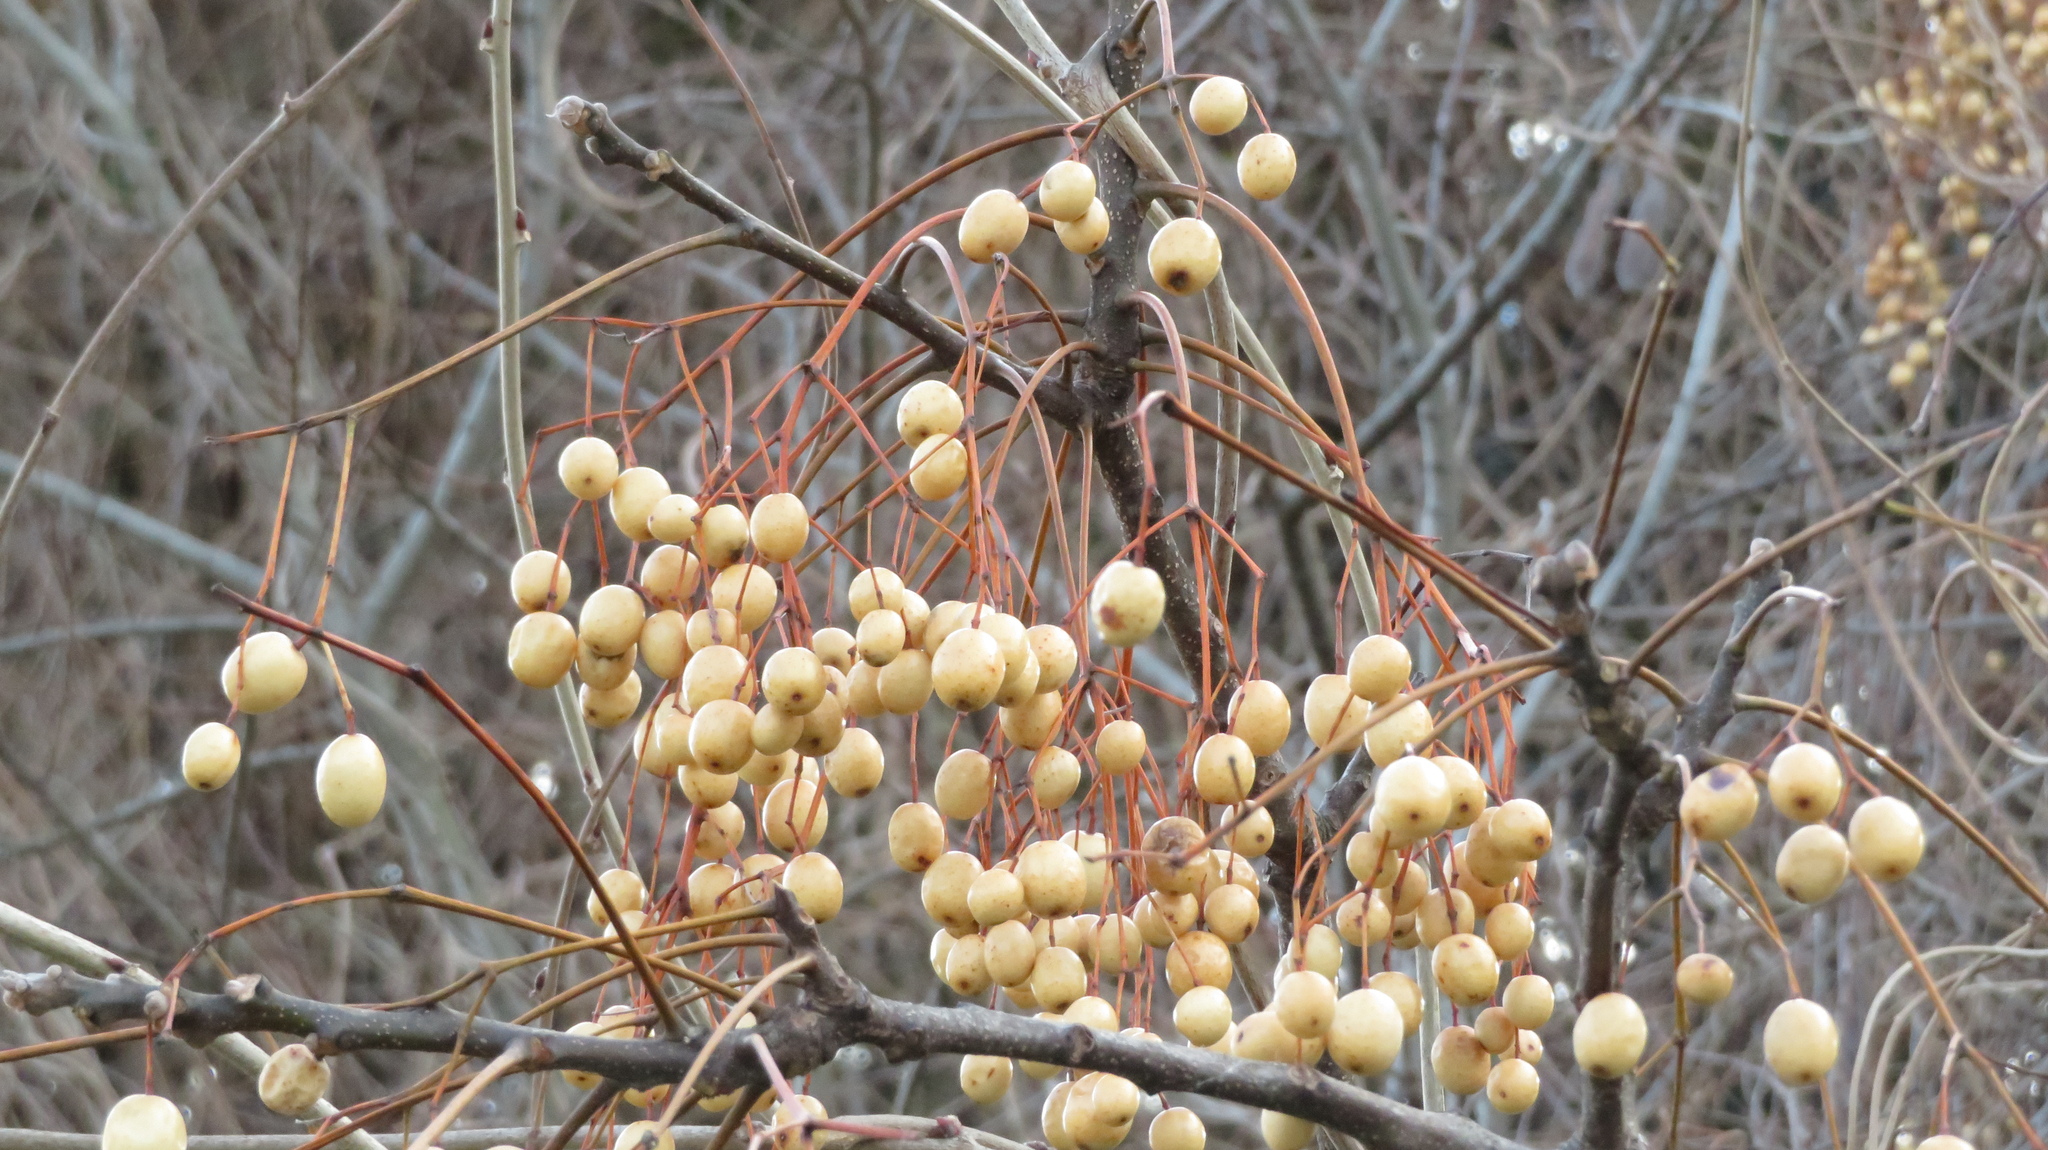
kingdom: Plantae
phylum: Tracheophyta
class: Magnoliopsida
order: Sapindales
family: Meliaceae
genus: Melia
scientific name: Melia azedarach
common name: Chinaberrytree
